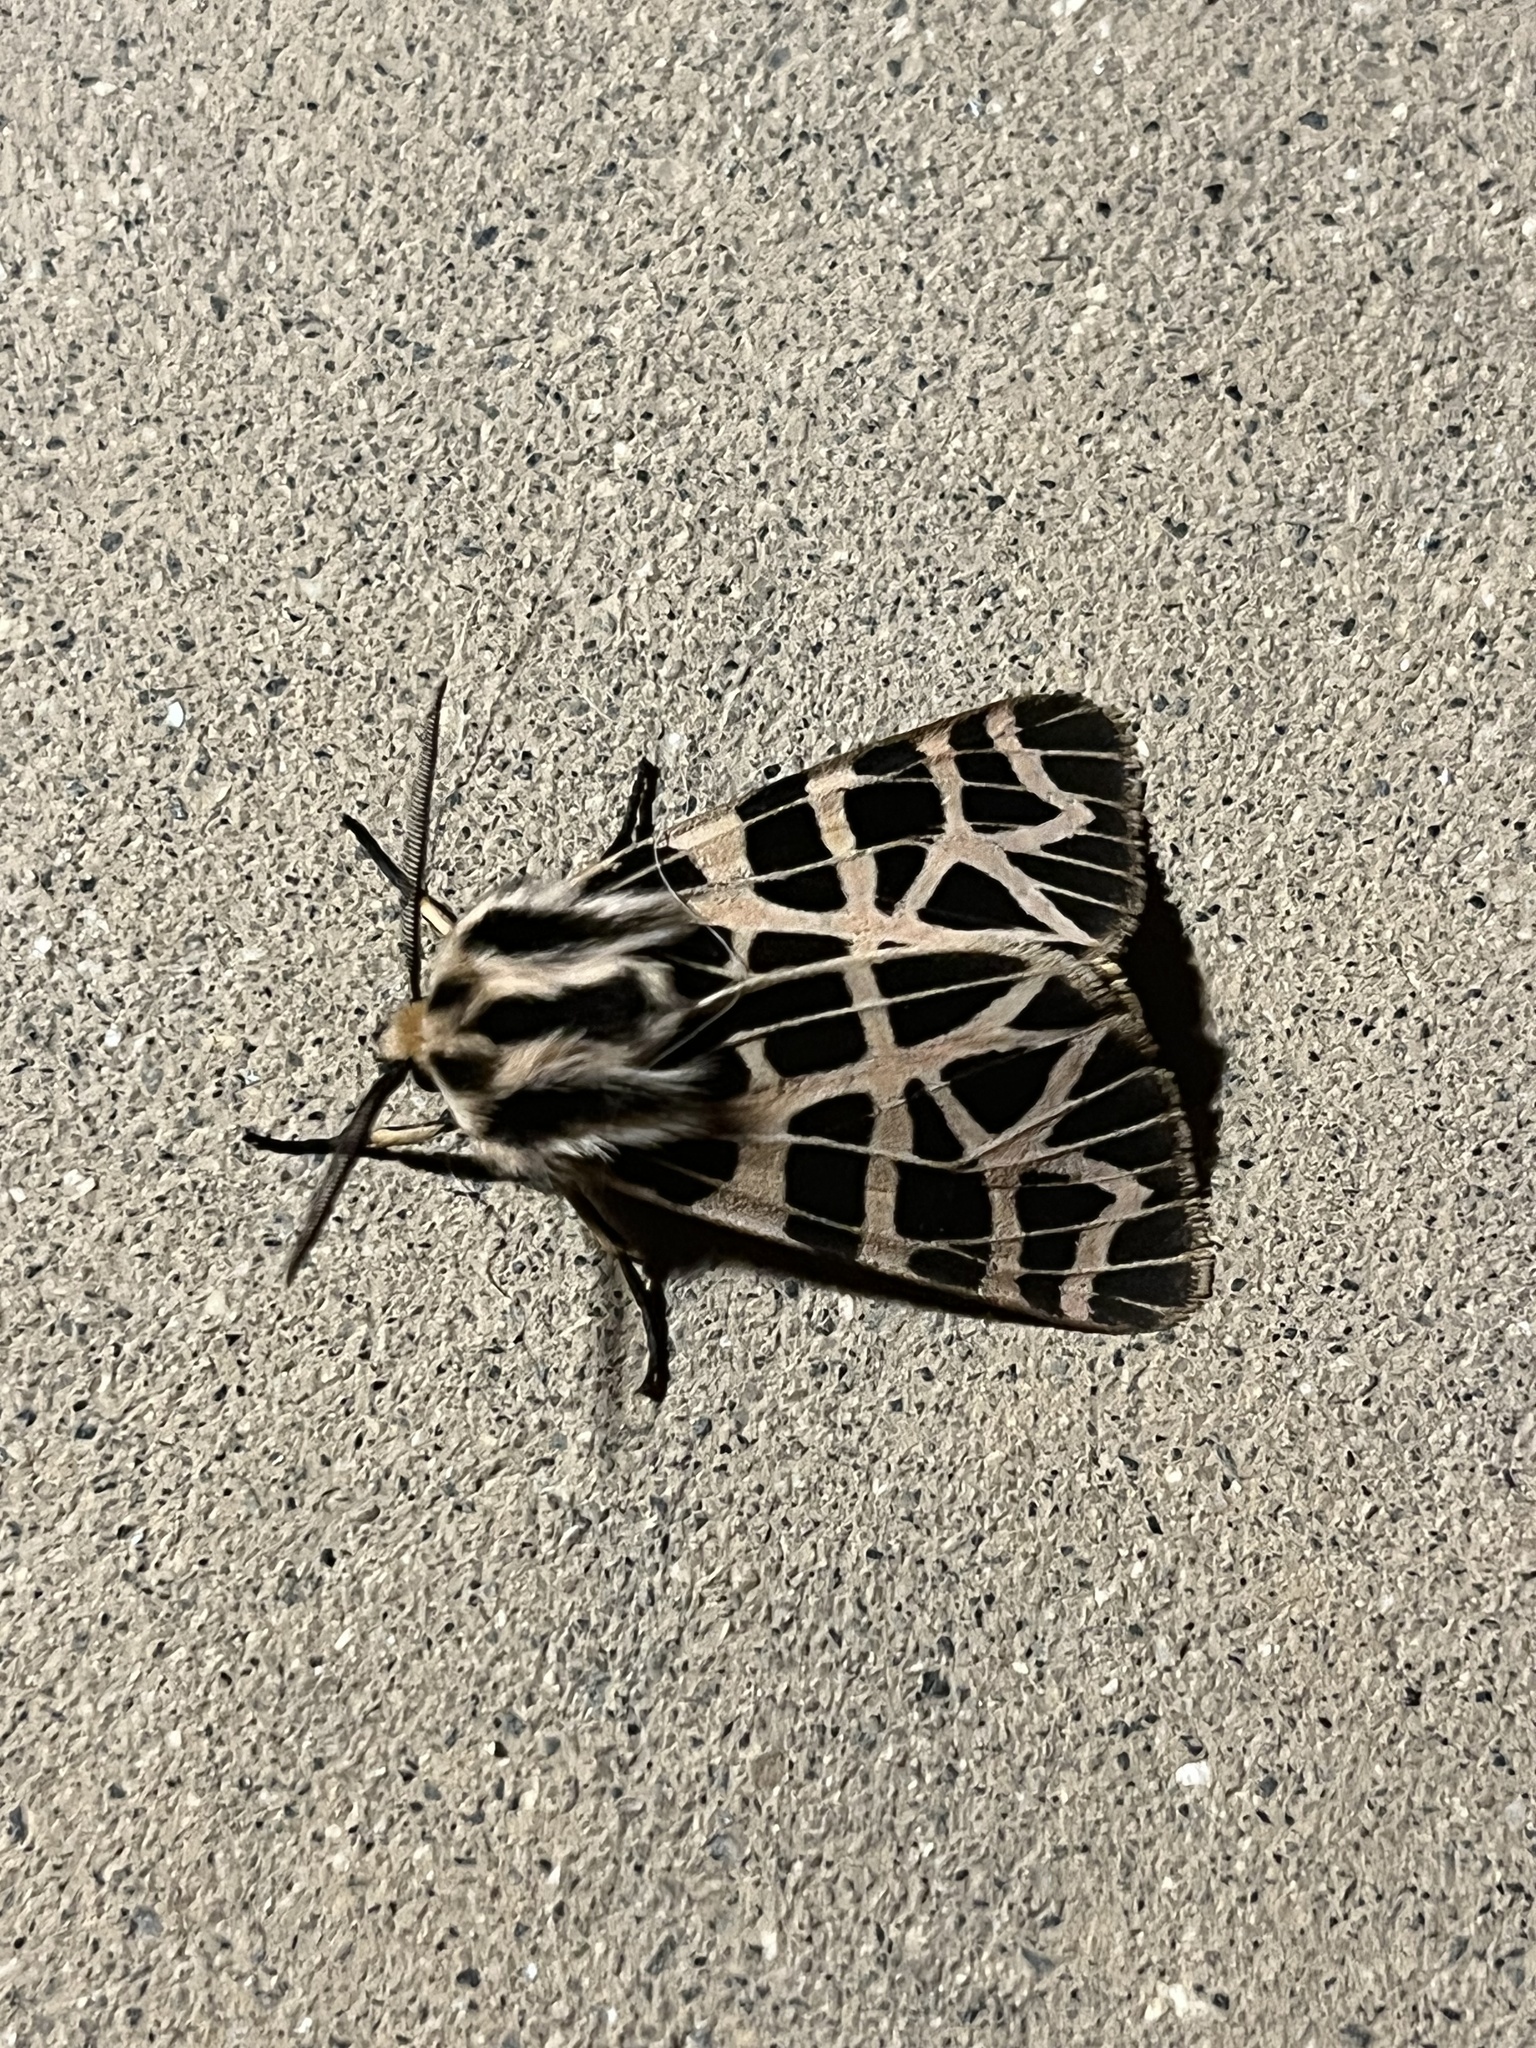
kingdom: Animalia
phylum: Arthropoda
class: Insecta
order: Lepidoptera
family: Erebidae
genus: Apantesis
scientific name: Apantesis
